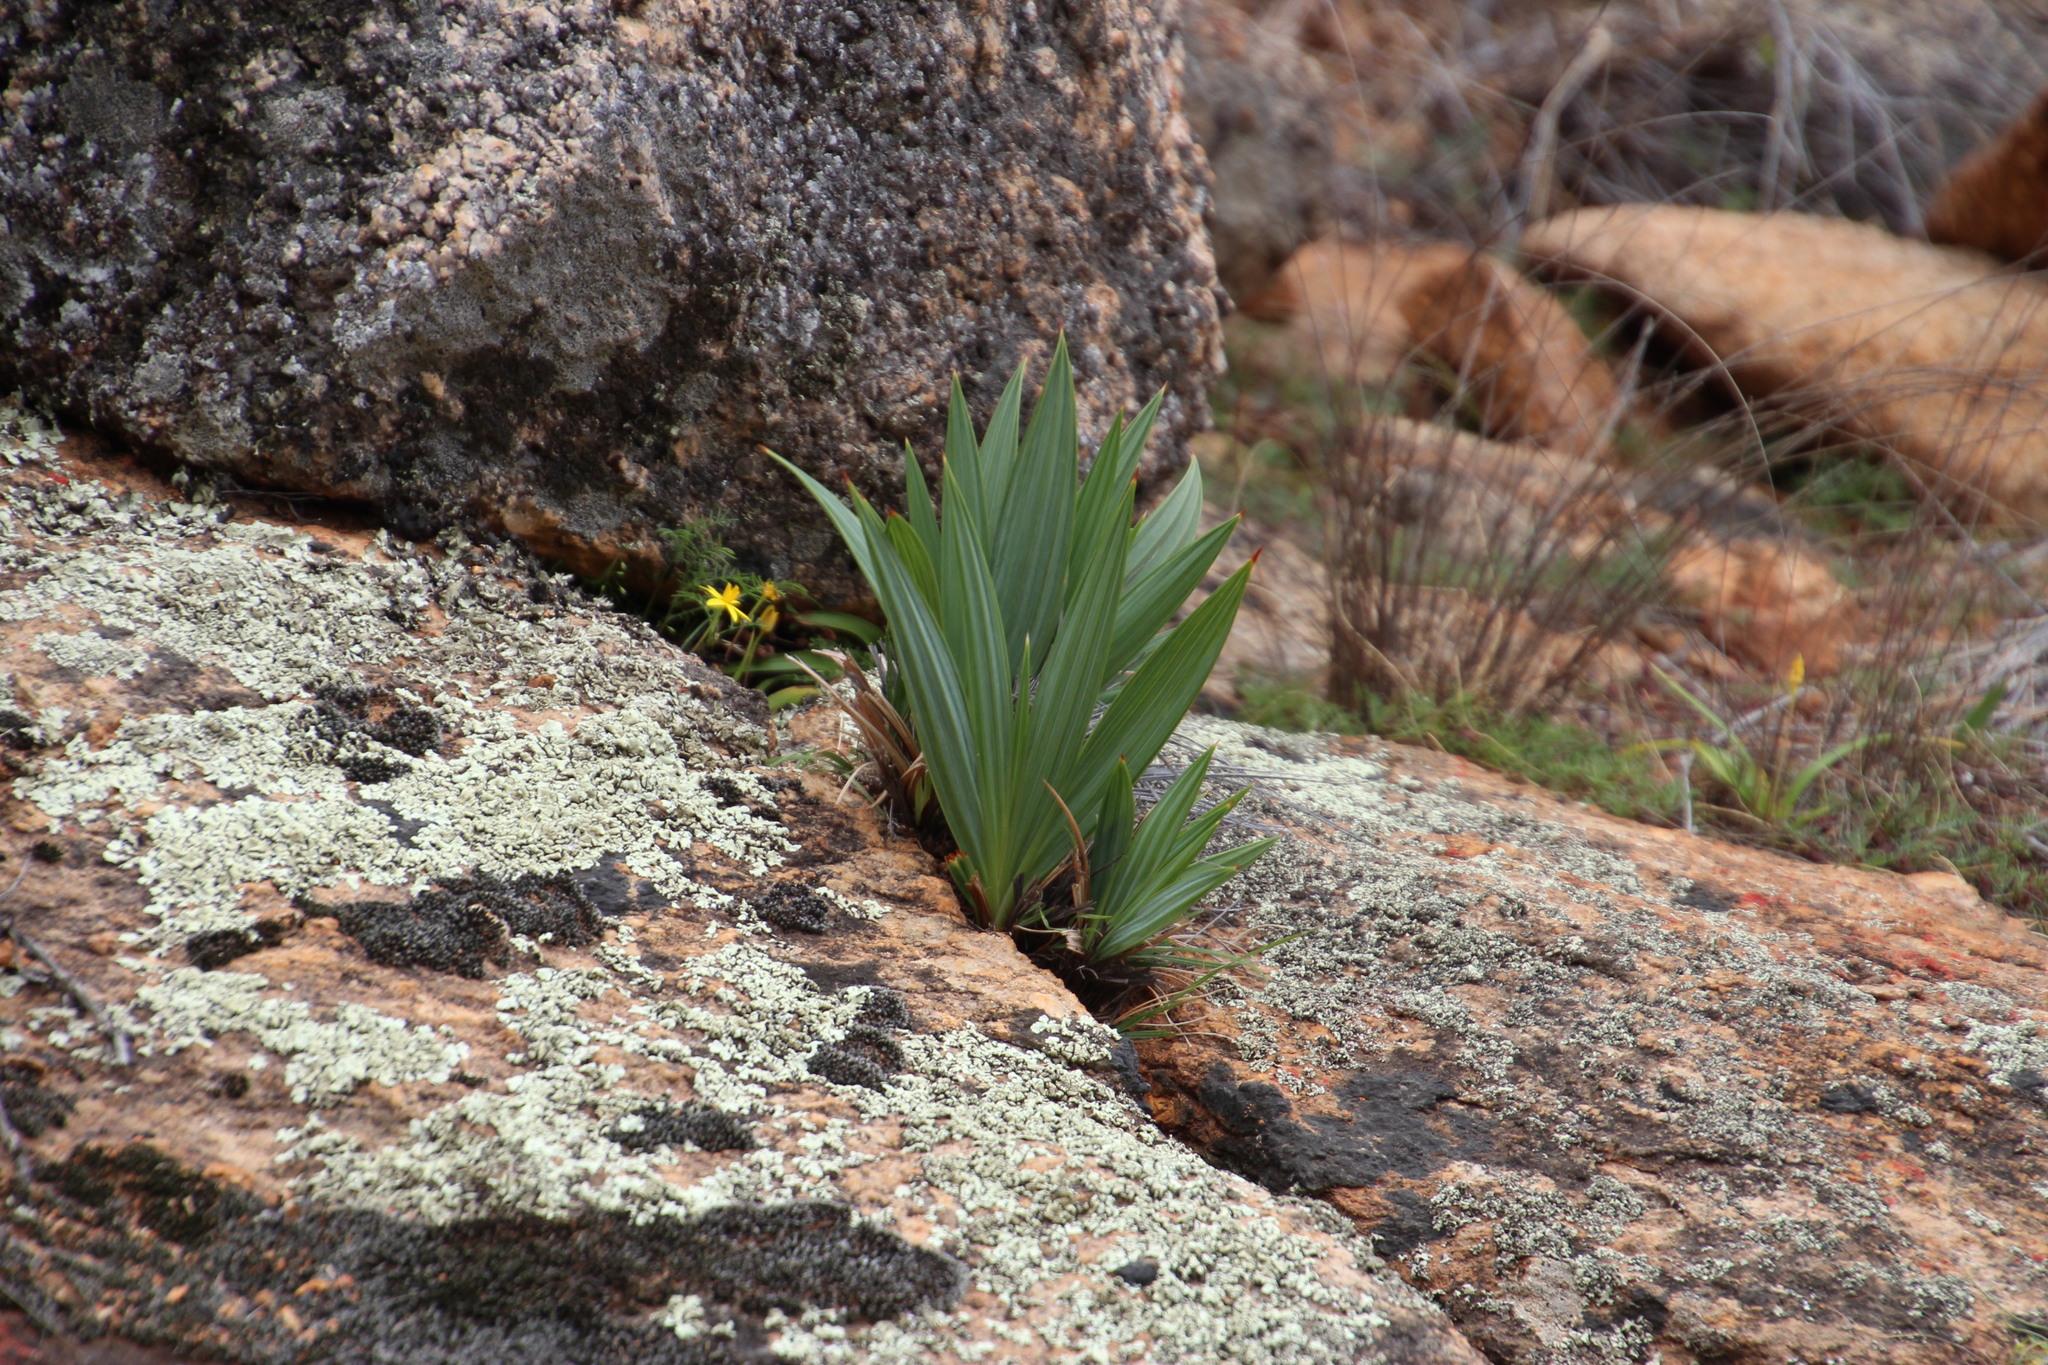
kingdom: Plantae
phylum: Tracheophyta
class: Liliopsida
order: Asparagales
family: Iridaceae
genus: Babiana
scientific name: Babiana dregei
